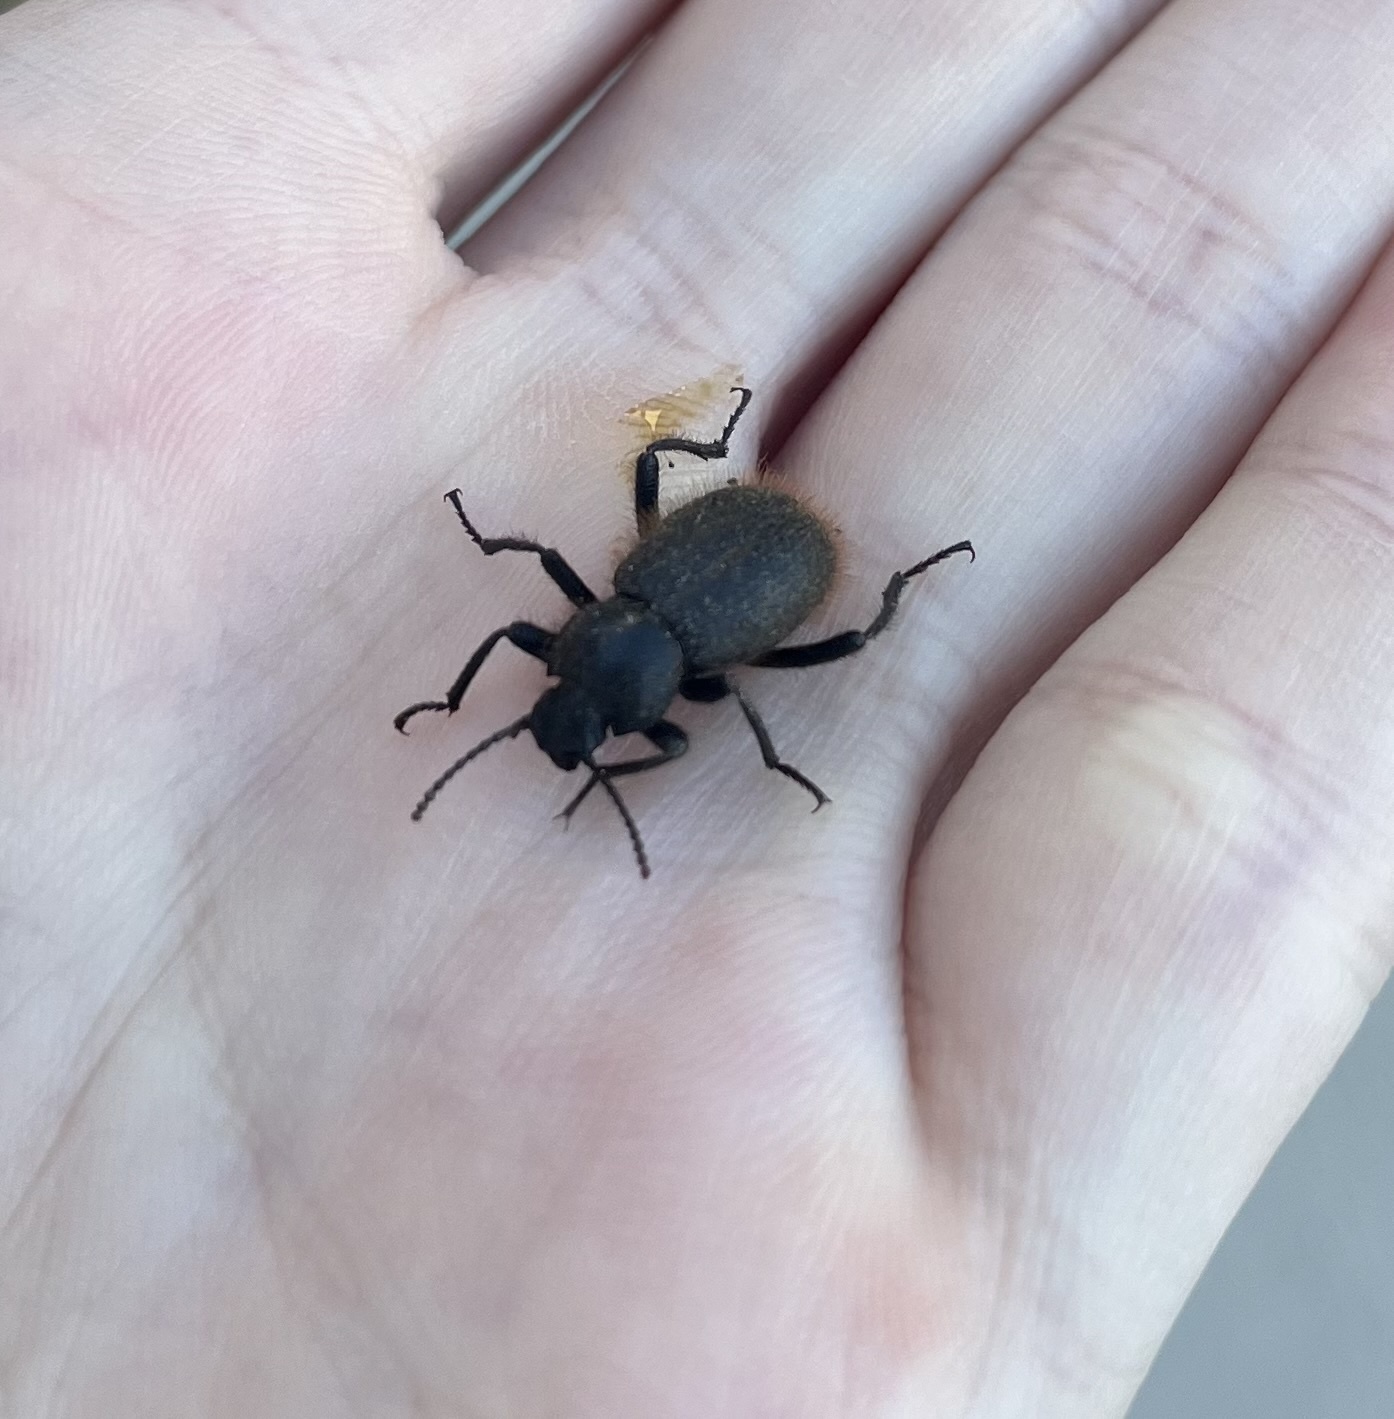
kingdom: Animalia
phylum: Arthropoda
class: Insecta
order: Coleoptera
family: Tenebrionidae
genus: Eleodes
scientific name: Eleodes osculans
